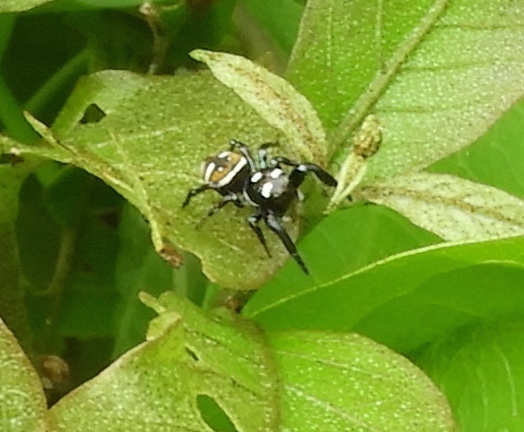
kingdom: Animalia
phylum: Arthropoda
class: Arachnida
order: Araneae
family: Salticidae
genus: Sassacus
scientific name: Sassacus
